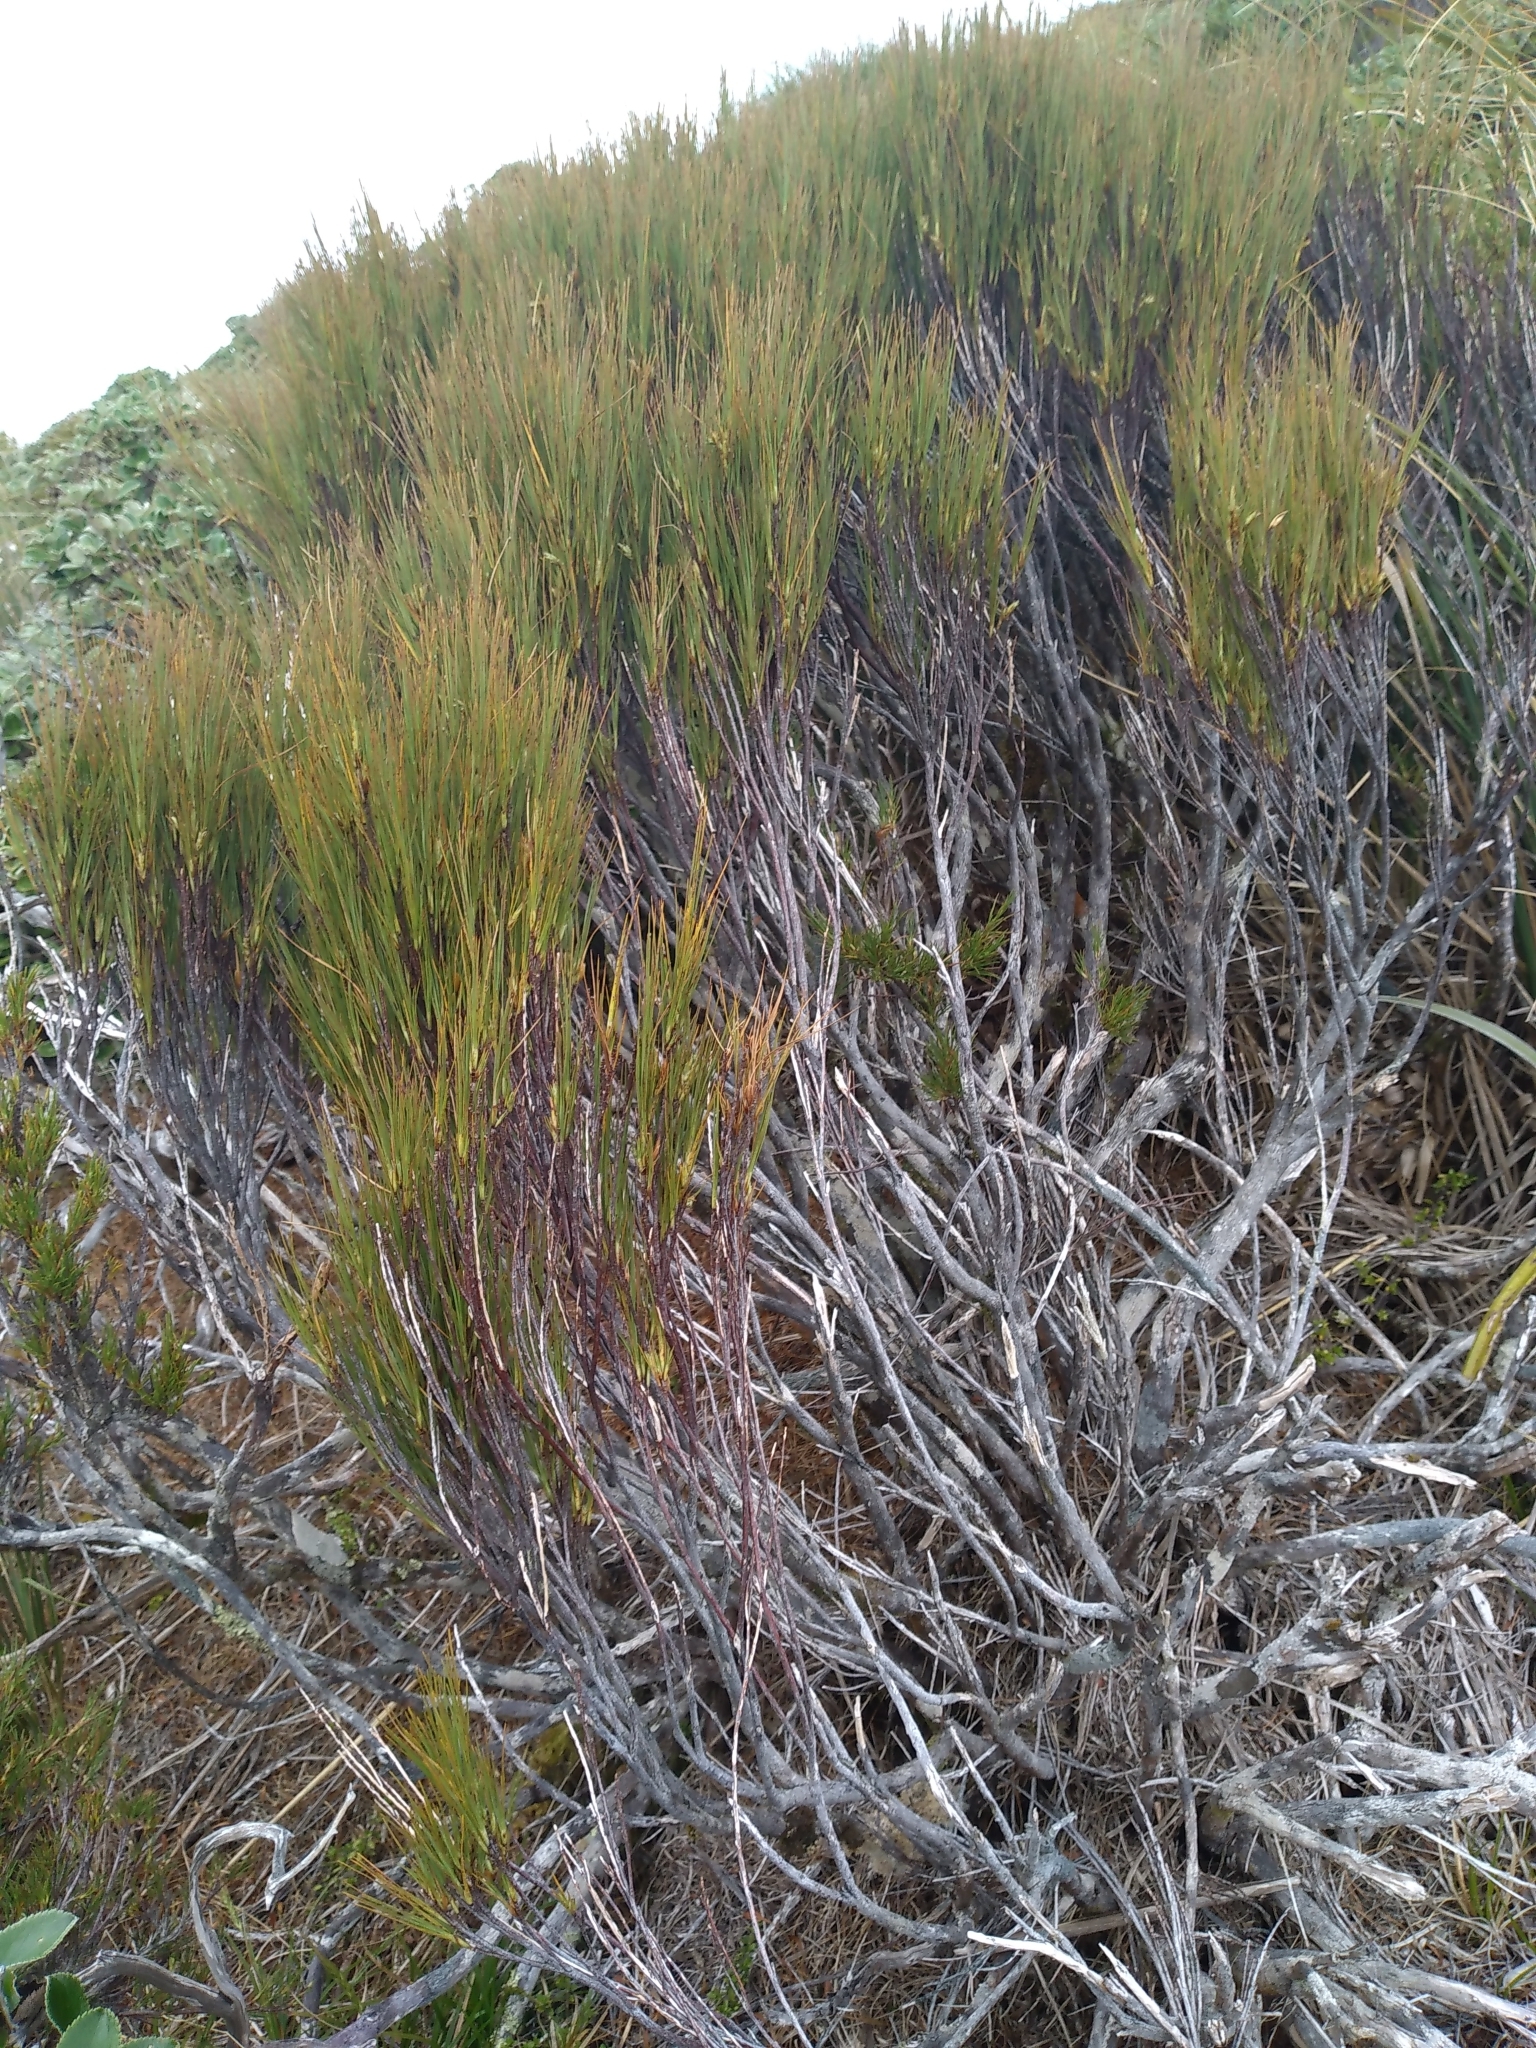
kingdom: Plantae
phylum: Tracheophyta
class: Magnoliopsida
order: Ericales
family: Ericaceae
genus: Dracophyllum
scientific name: Dracophyllum filifolium
